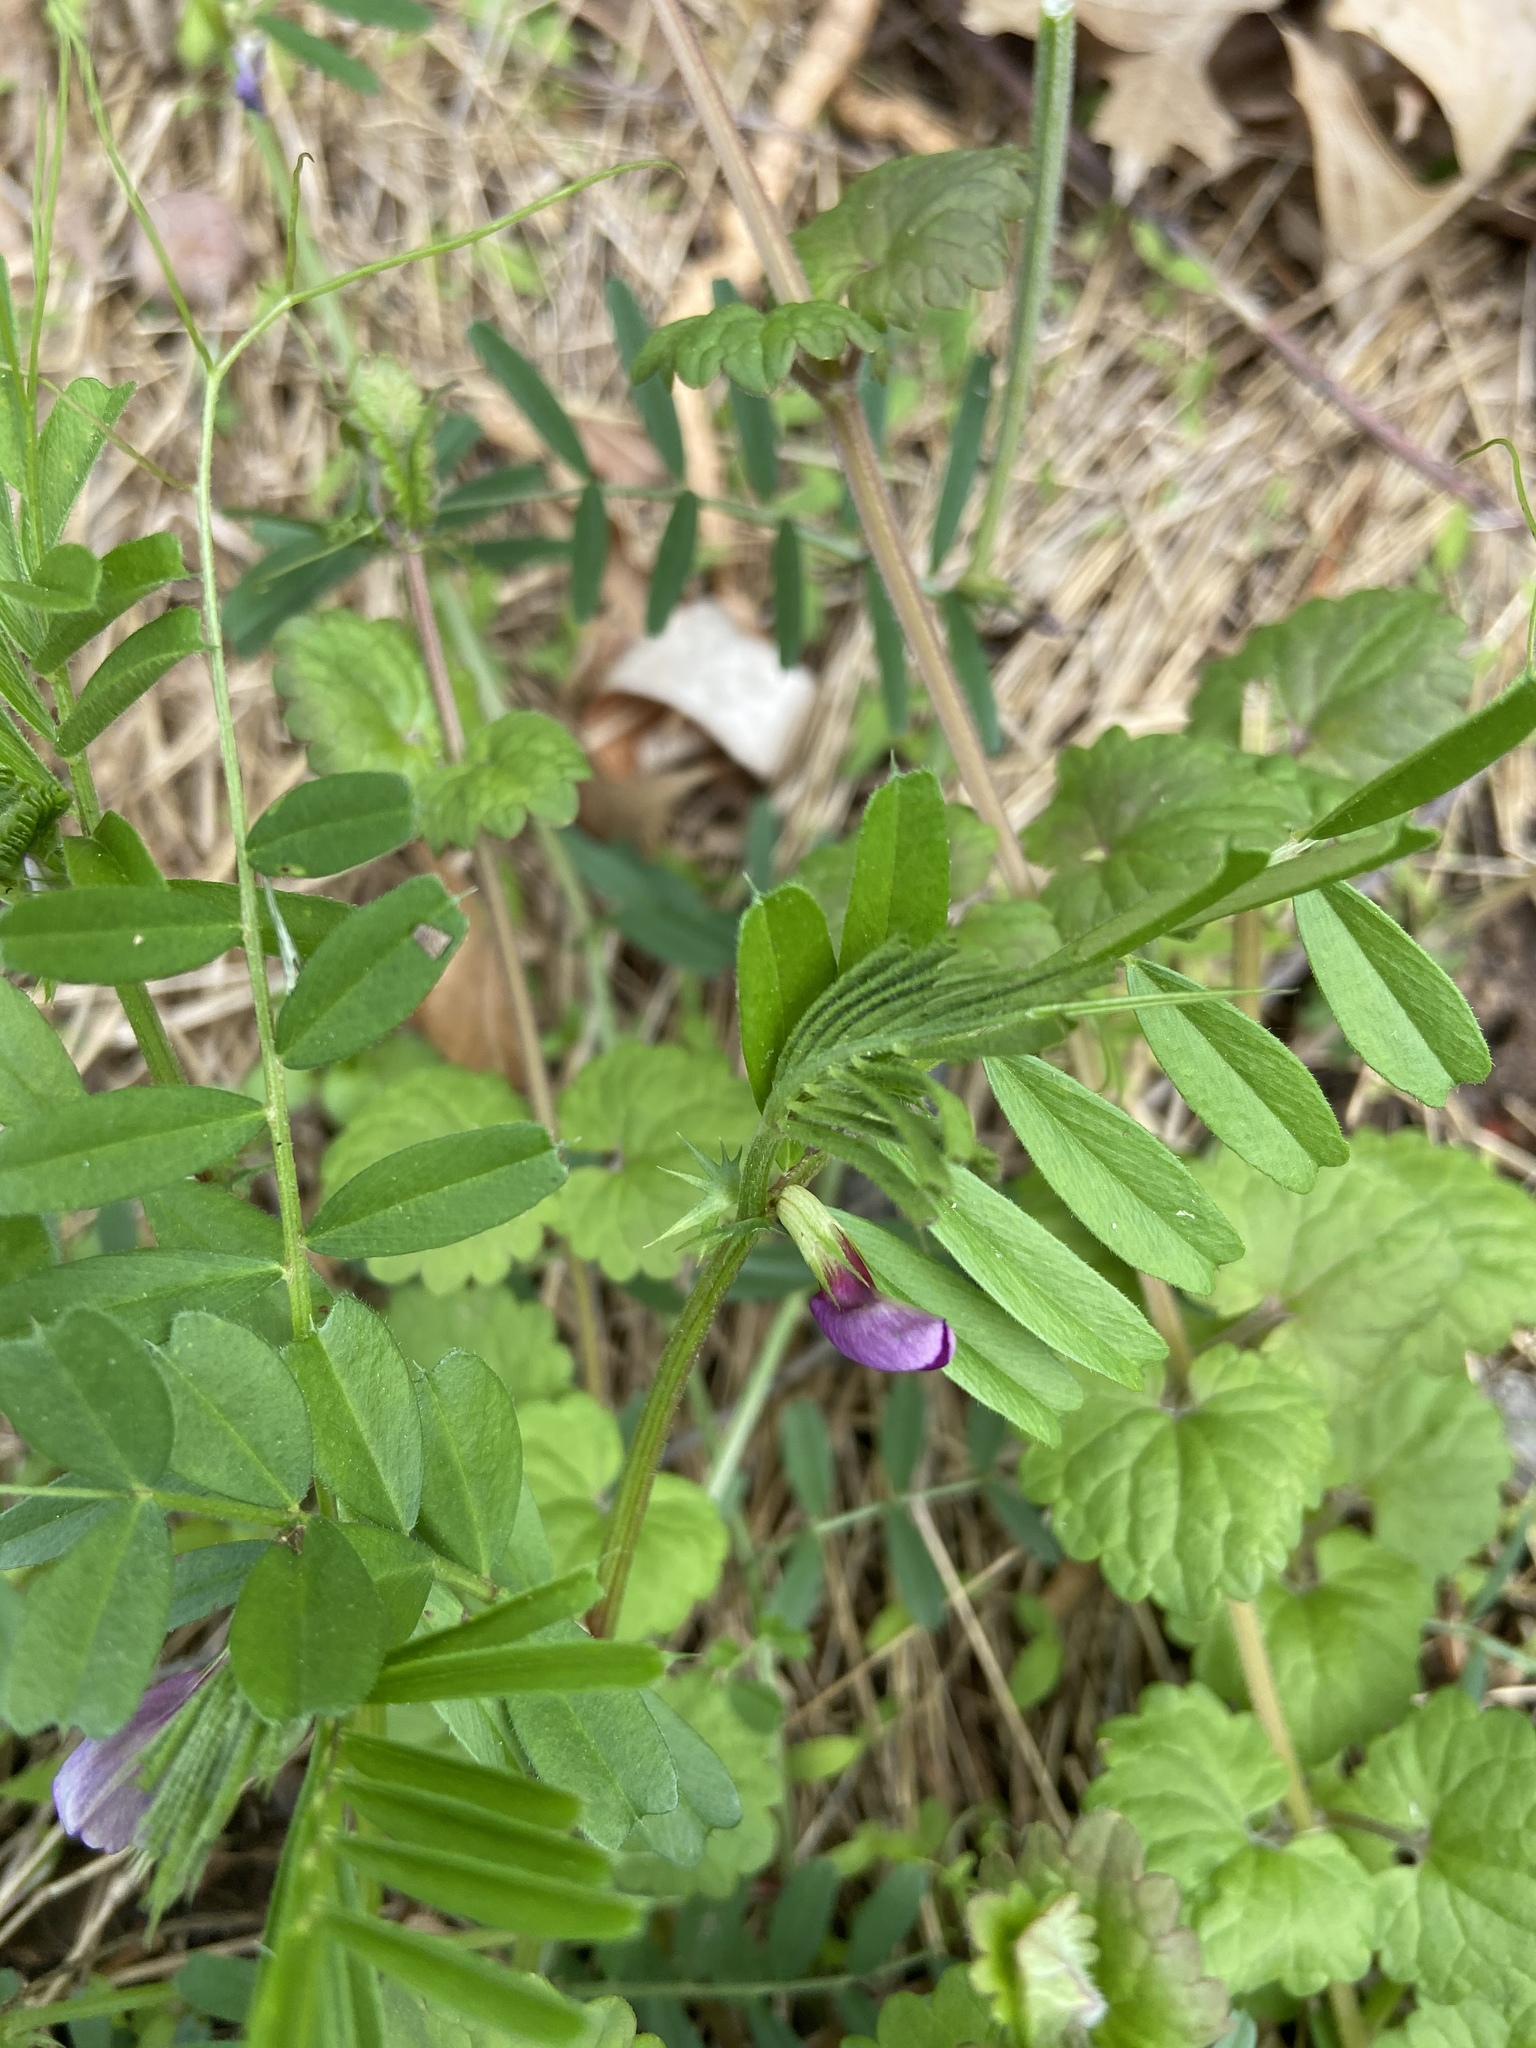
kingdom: Plantae
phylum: Tracheophyta
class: Magnoliopsida
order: Fabales
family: Fabaceae
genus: Vicia
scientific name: Vicia sativa
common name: Garden vetch
